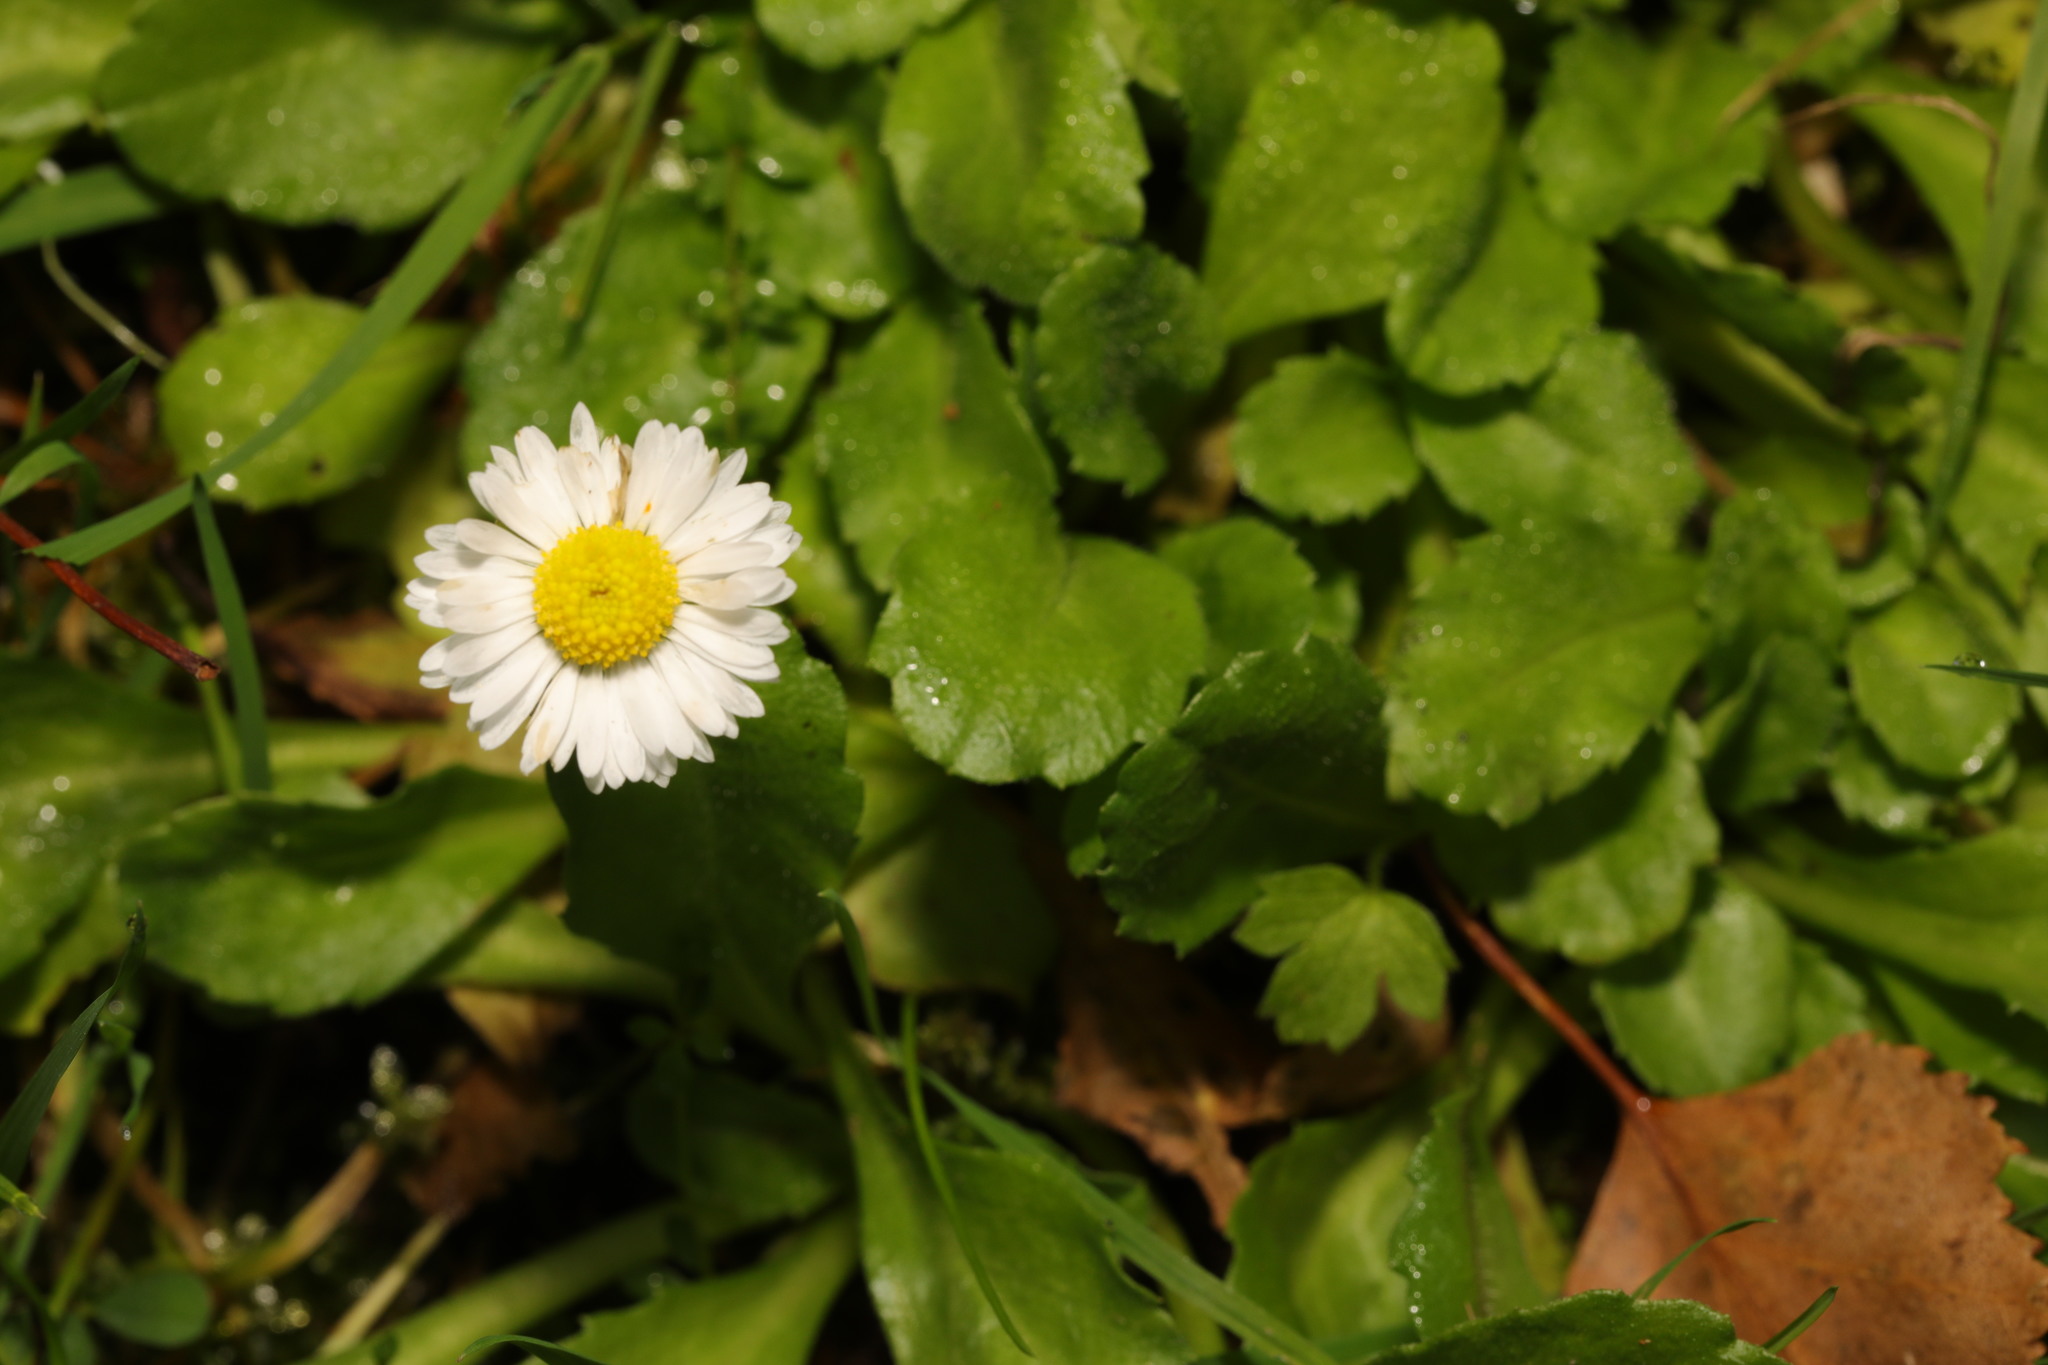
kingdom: Plantae
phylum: Tracheophyta
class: Magnoliopsida
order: Asterales
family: Asteraceae
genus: Bellis
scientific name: Bellis perennis
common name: Lawndaisy
